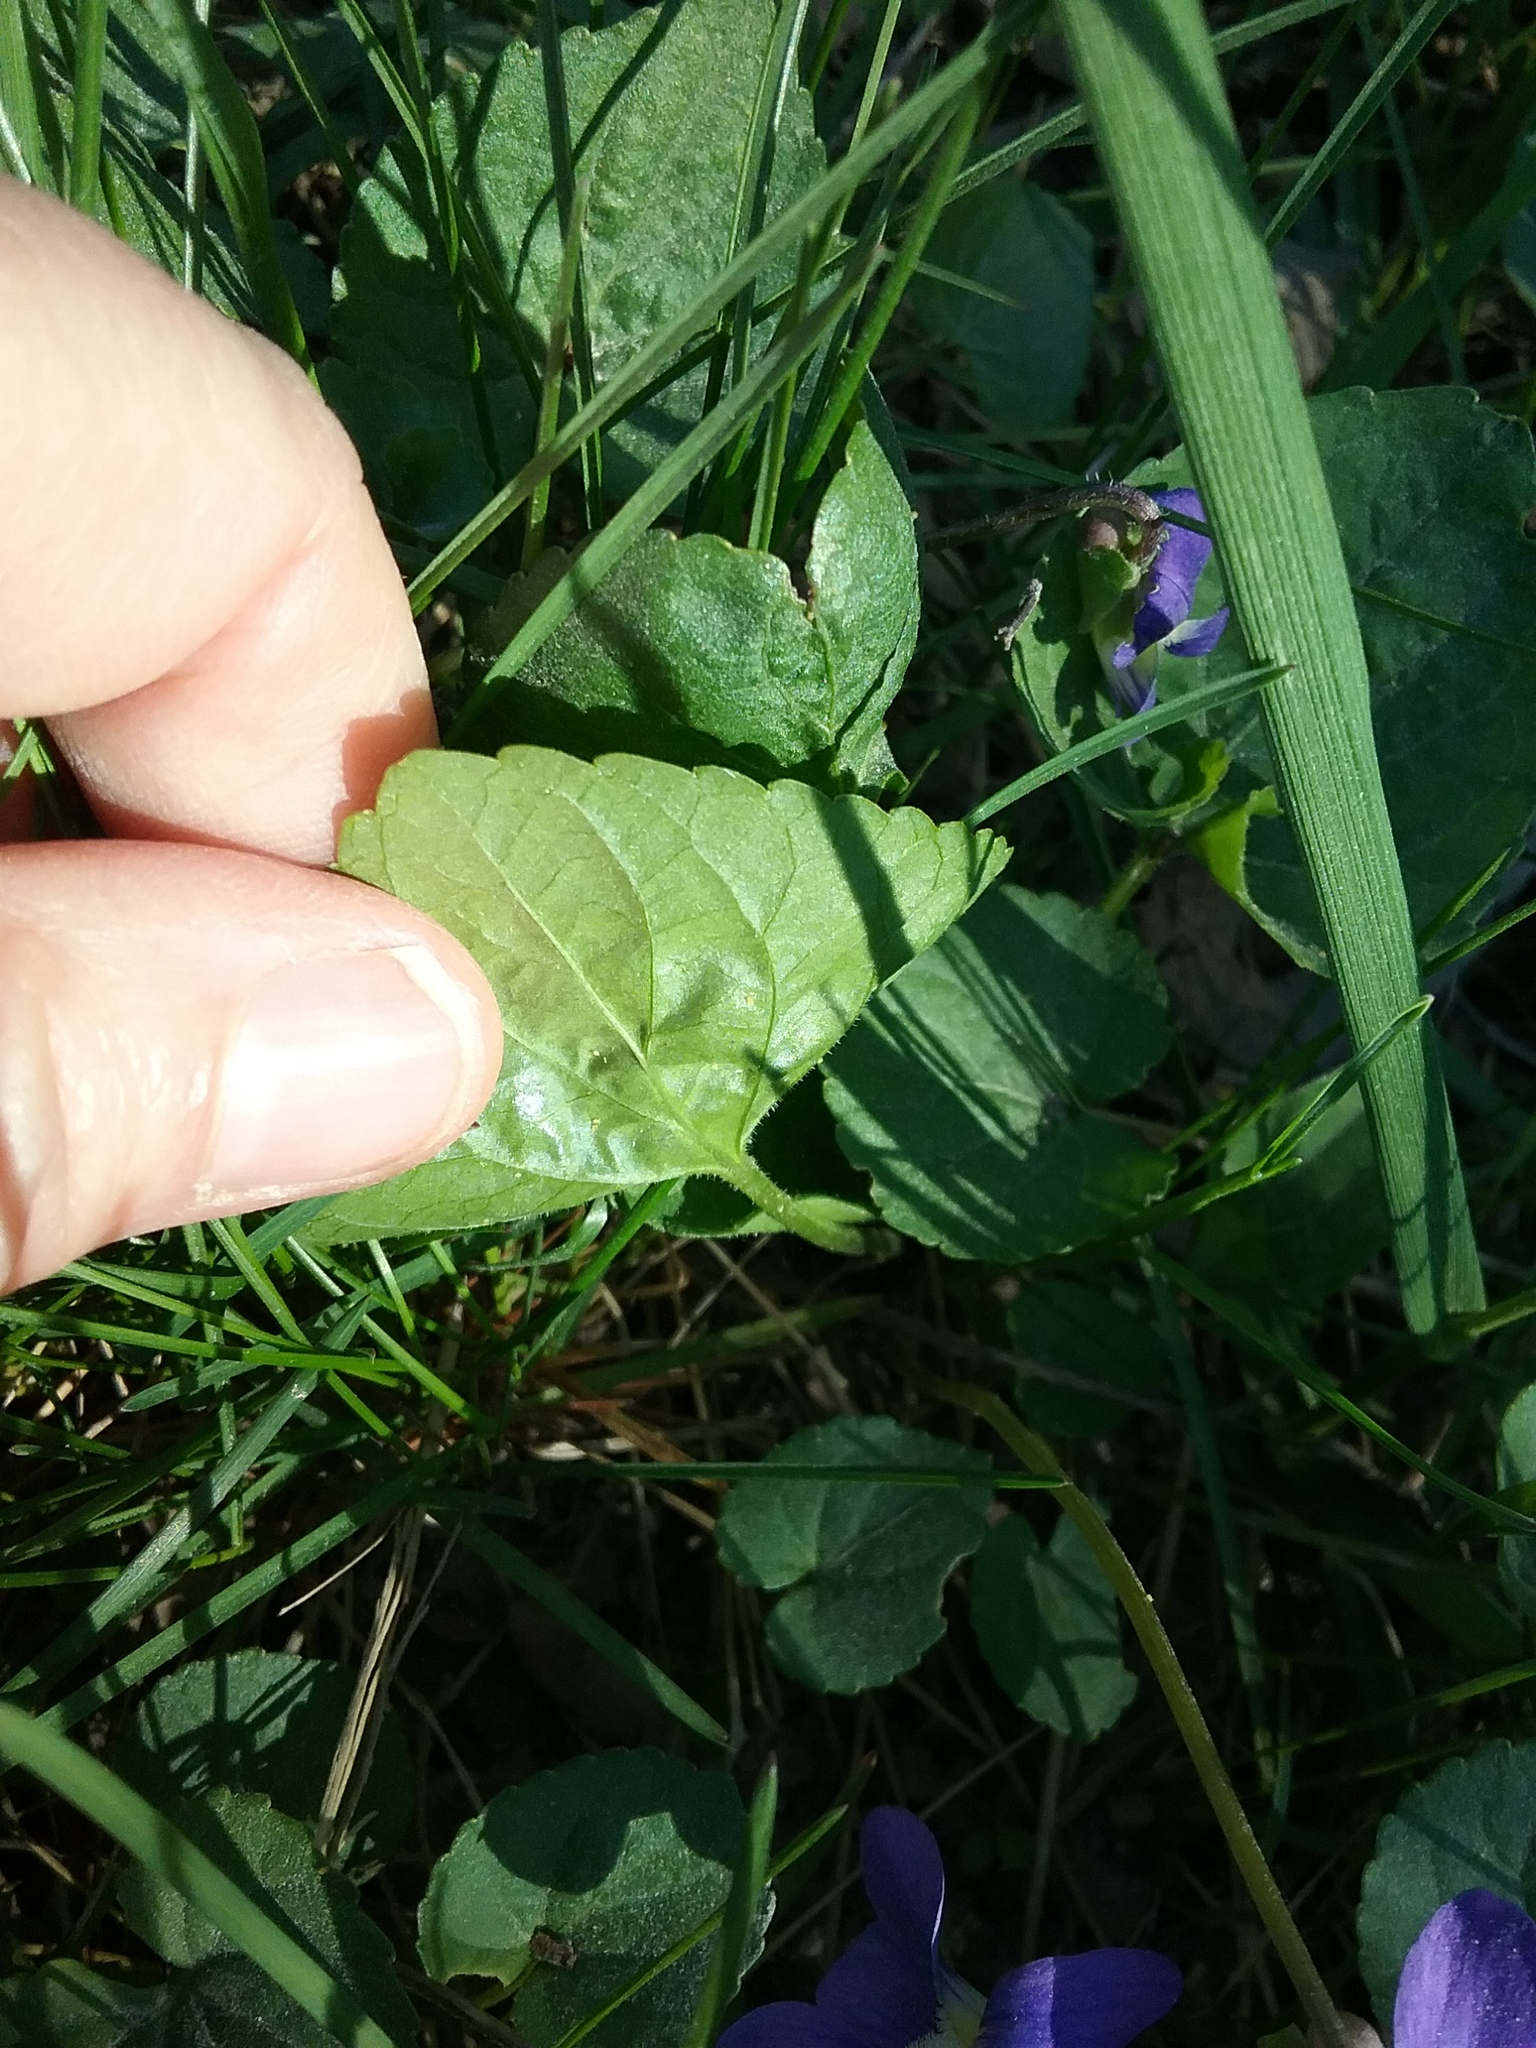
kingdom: Plantae
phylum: Tracheophyta
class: Magnoliopsida
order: Malpighiales
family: Violaceae
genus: Viola
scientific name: Viola sororia
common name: Dooryard violet
